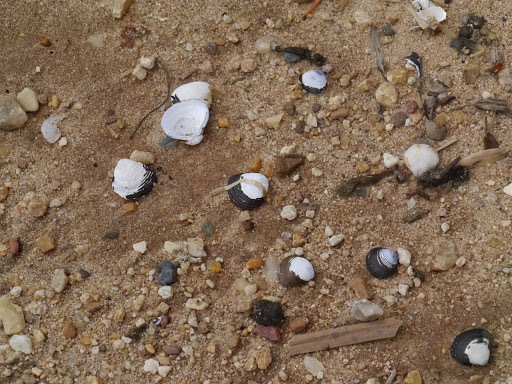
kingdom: Animalia
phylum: Mollusca
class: Bivalvia
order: Venerida
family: Cyrenidae
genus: Corbicula
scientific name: Corbicula fluminea
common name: Asian clam
